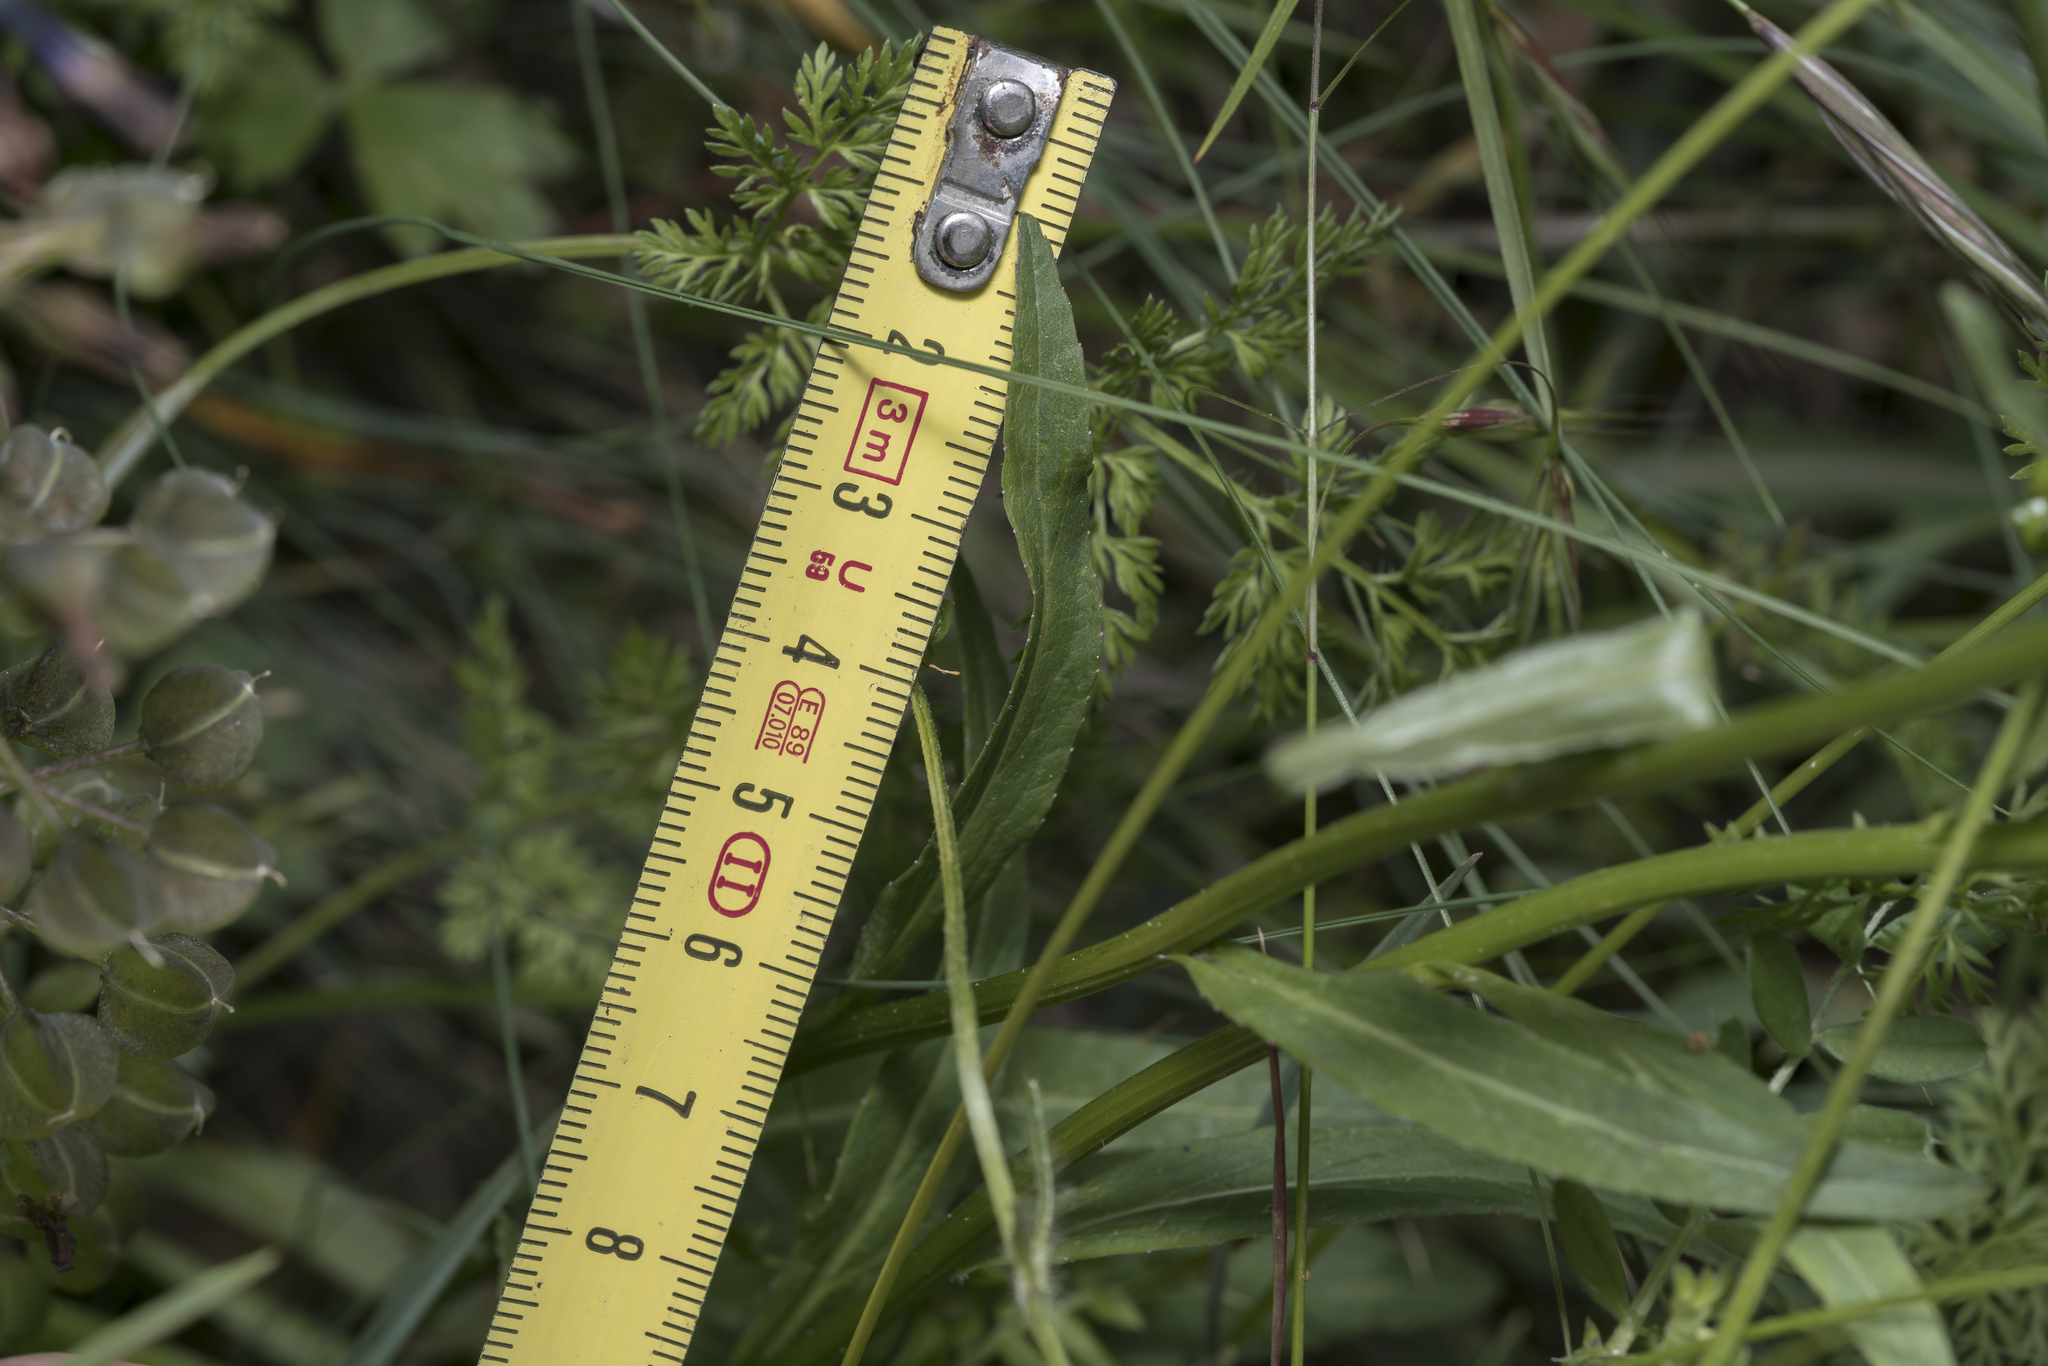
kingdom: Plantae
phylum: Tracheophyta
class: Magnoliopsida
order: Asterales
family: Campanulaceae
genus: Phyteuma
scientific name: Phyteuma betonicifolium
